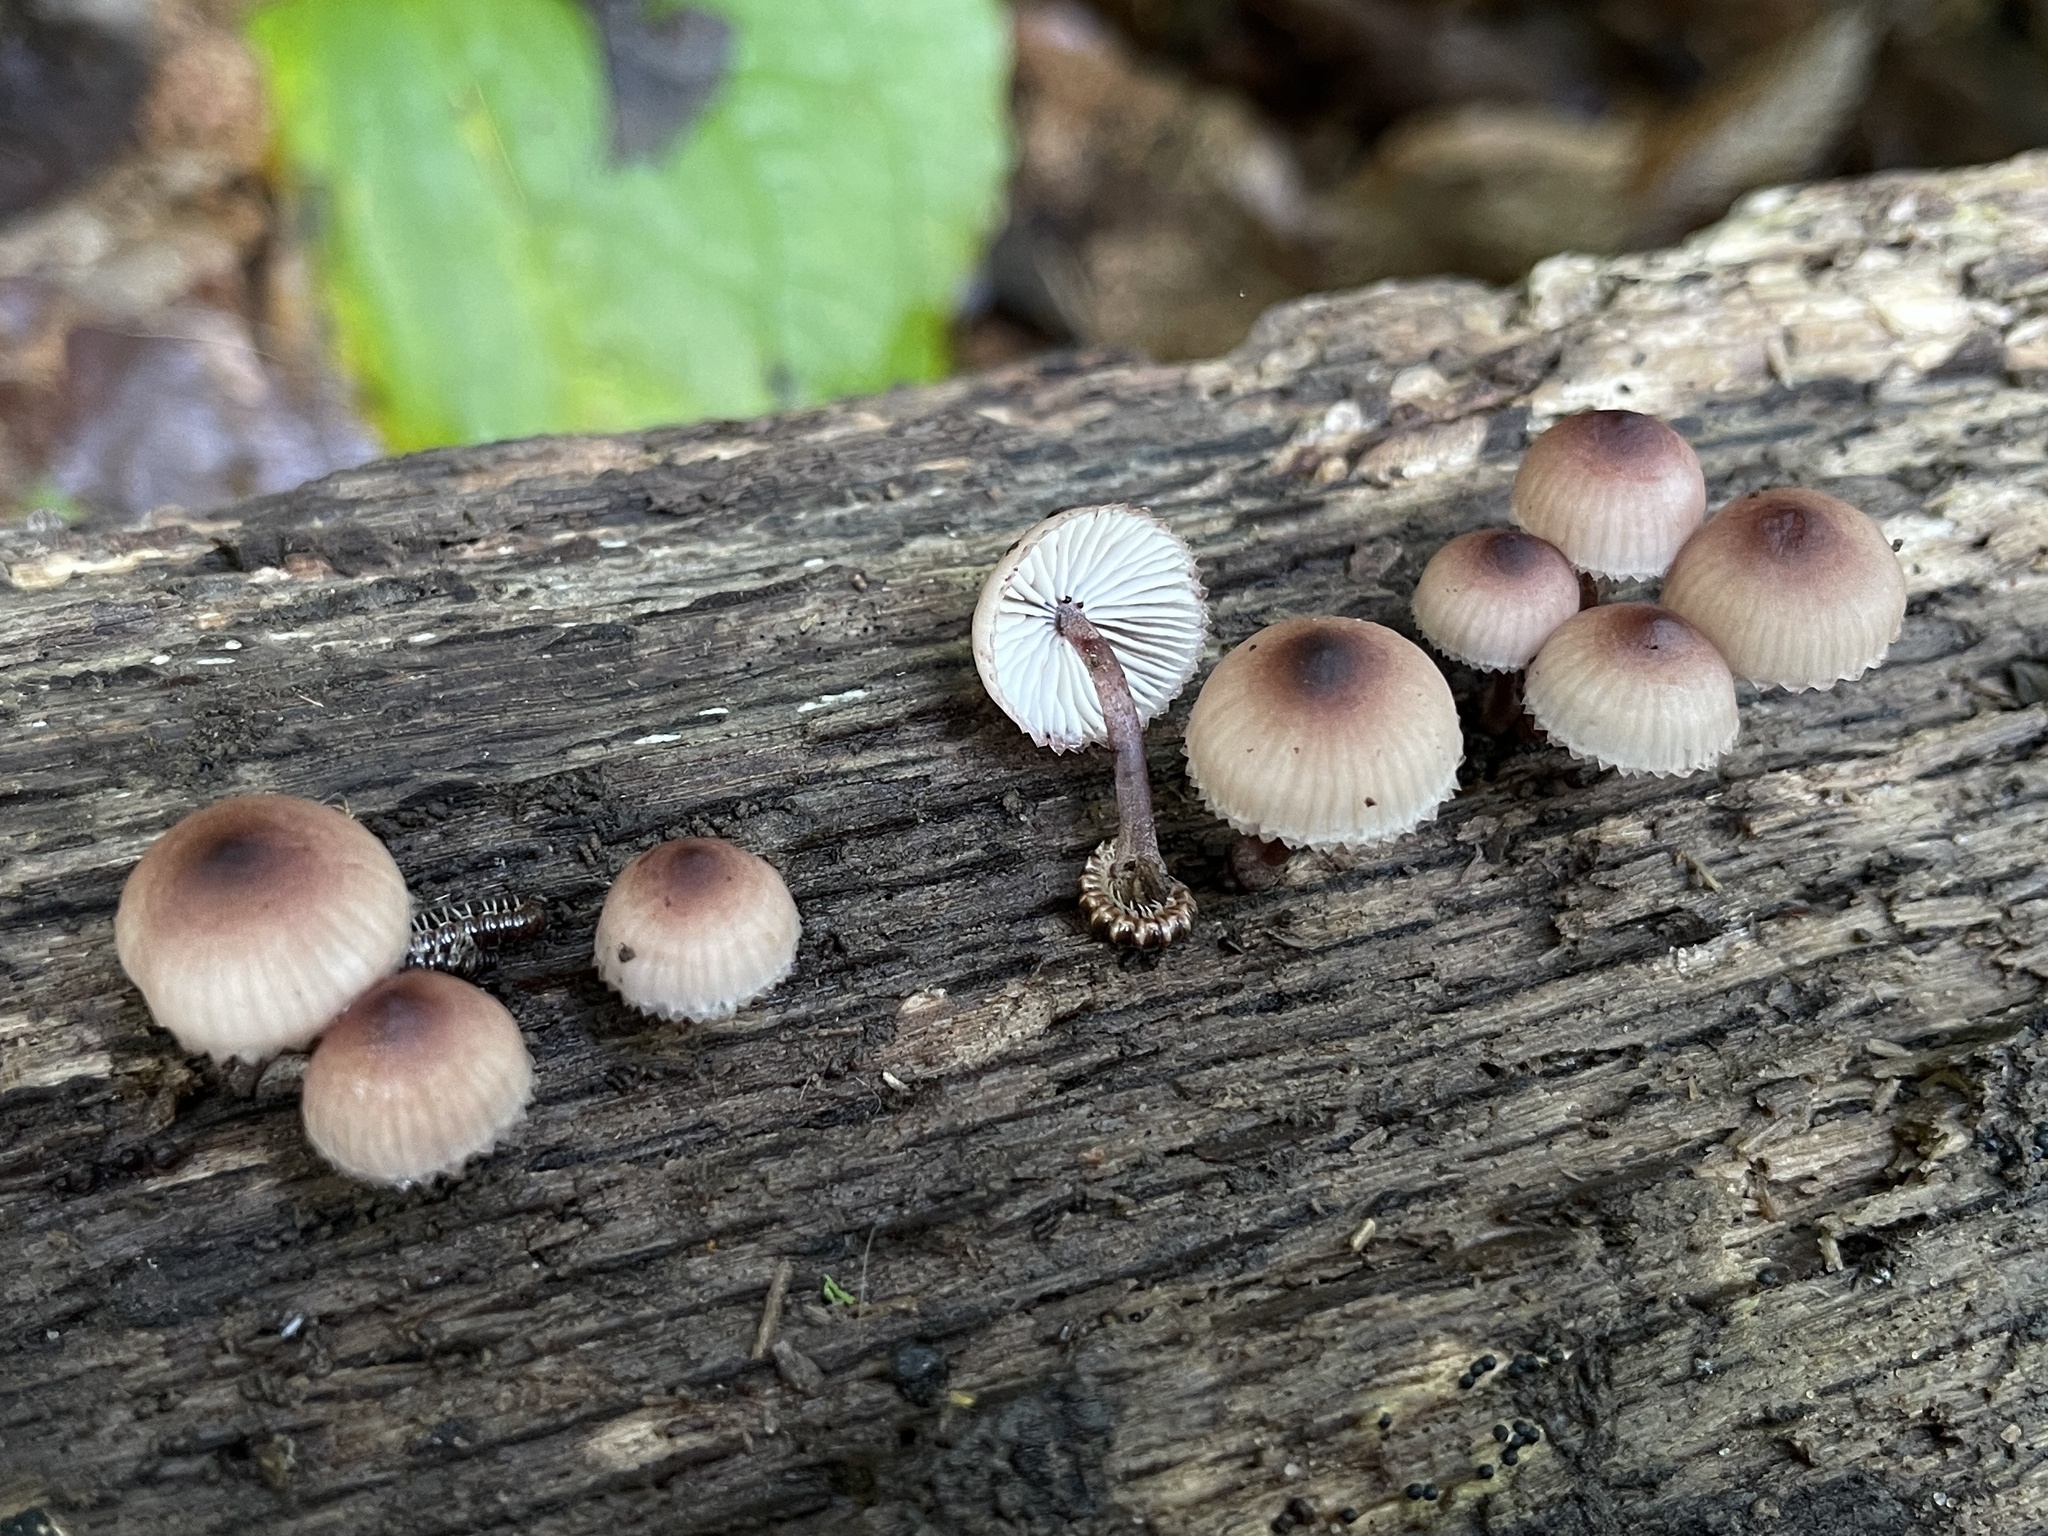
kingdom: Fungi
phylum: Basidiomycota
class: Agaricomycetes
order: Agaricales
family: Mycenaceae
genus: Mycena
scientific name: Mycena haematopus
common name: Burgundydrop bonnet
